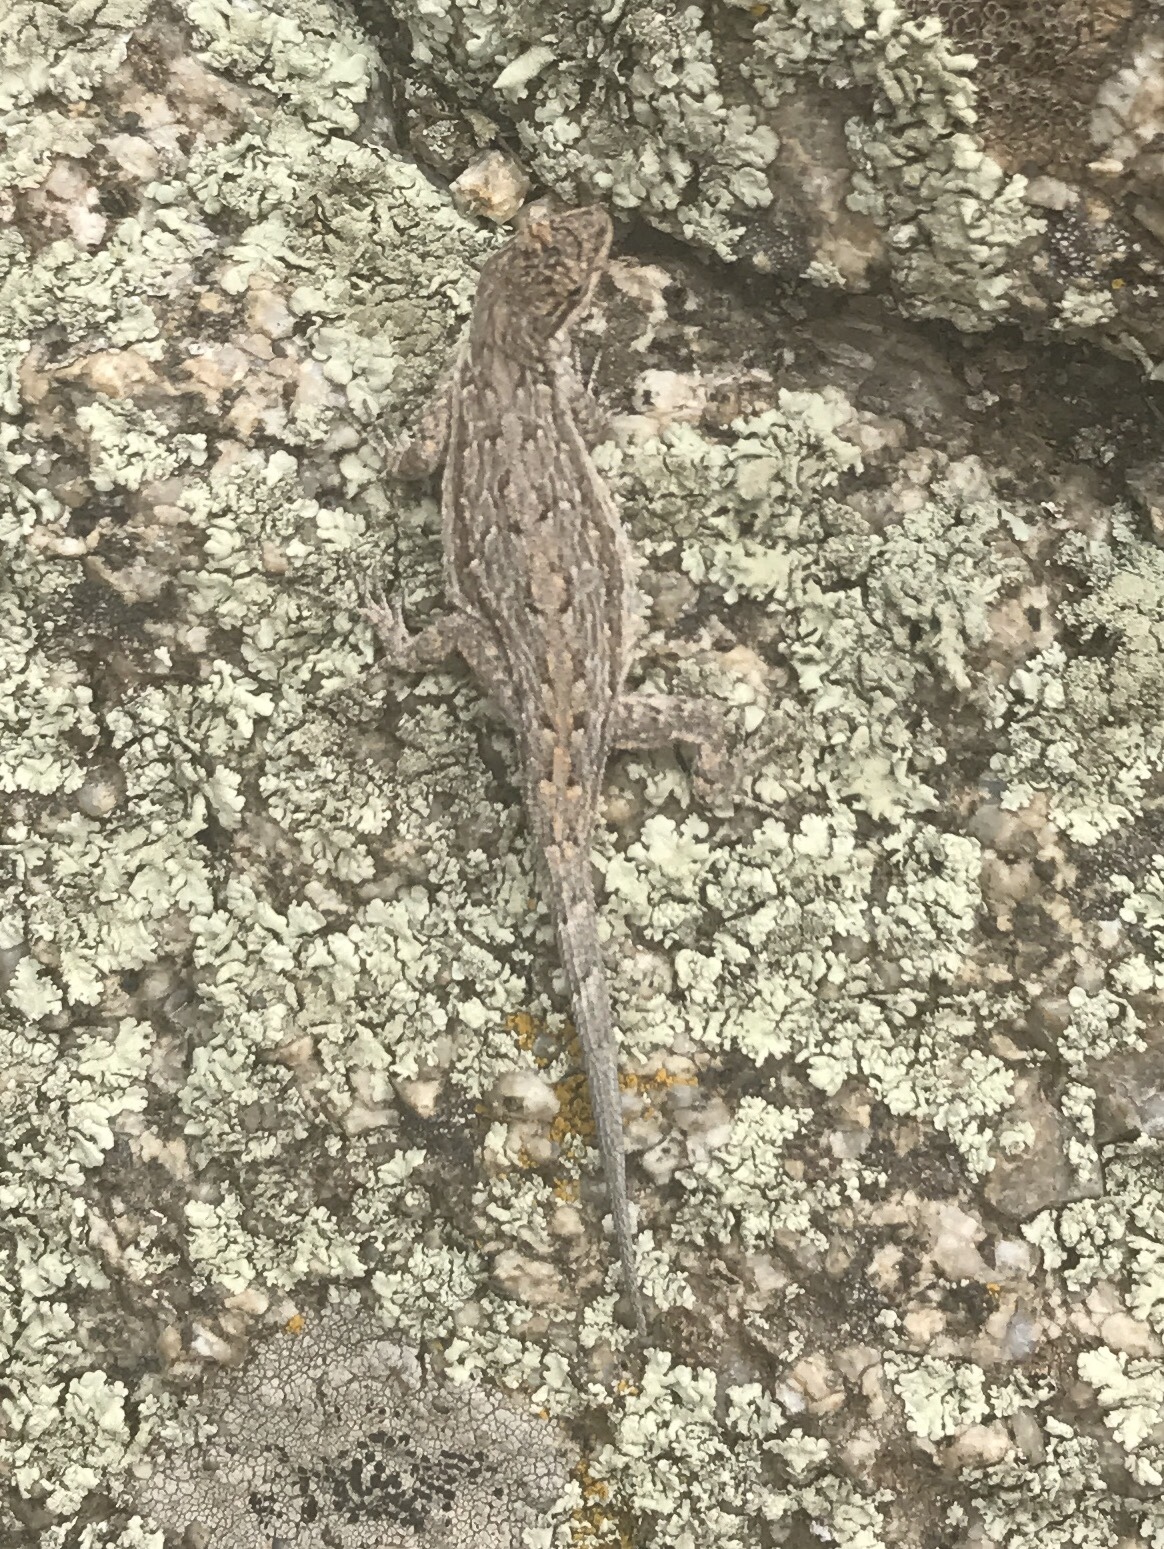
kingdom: Animalia
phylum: Chordata
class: Squamata
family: Phrynosomatidae
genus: Sceloporus
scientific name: Sceloporus cowlesi
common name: White sands prairie lizard
